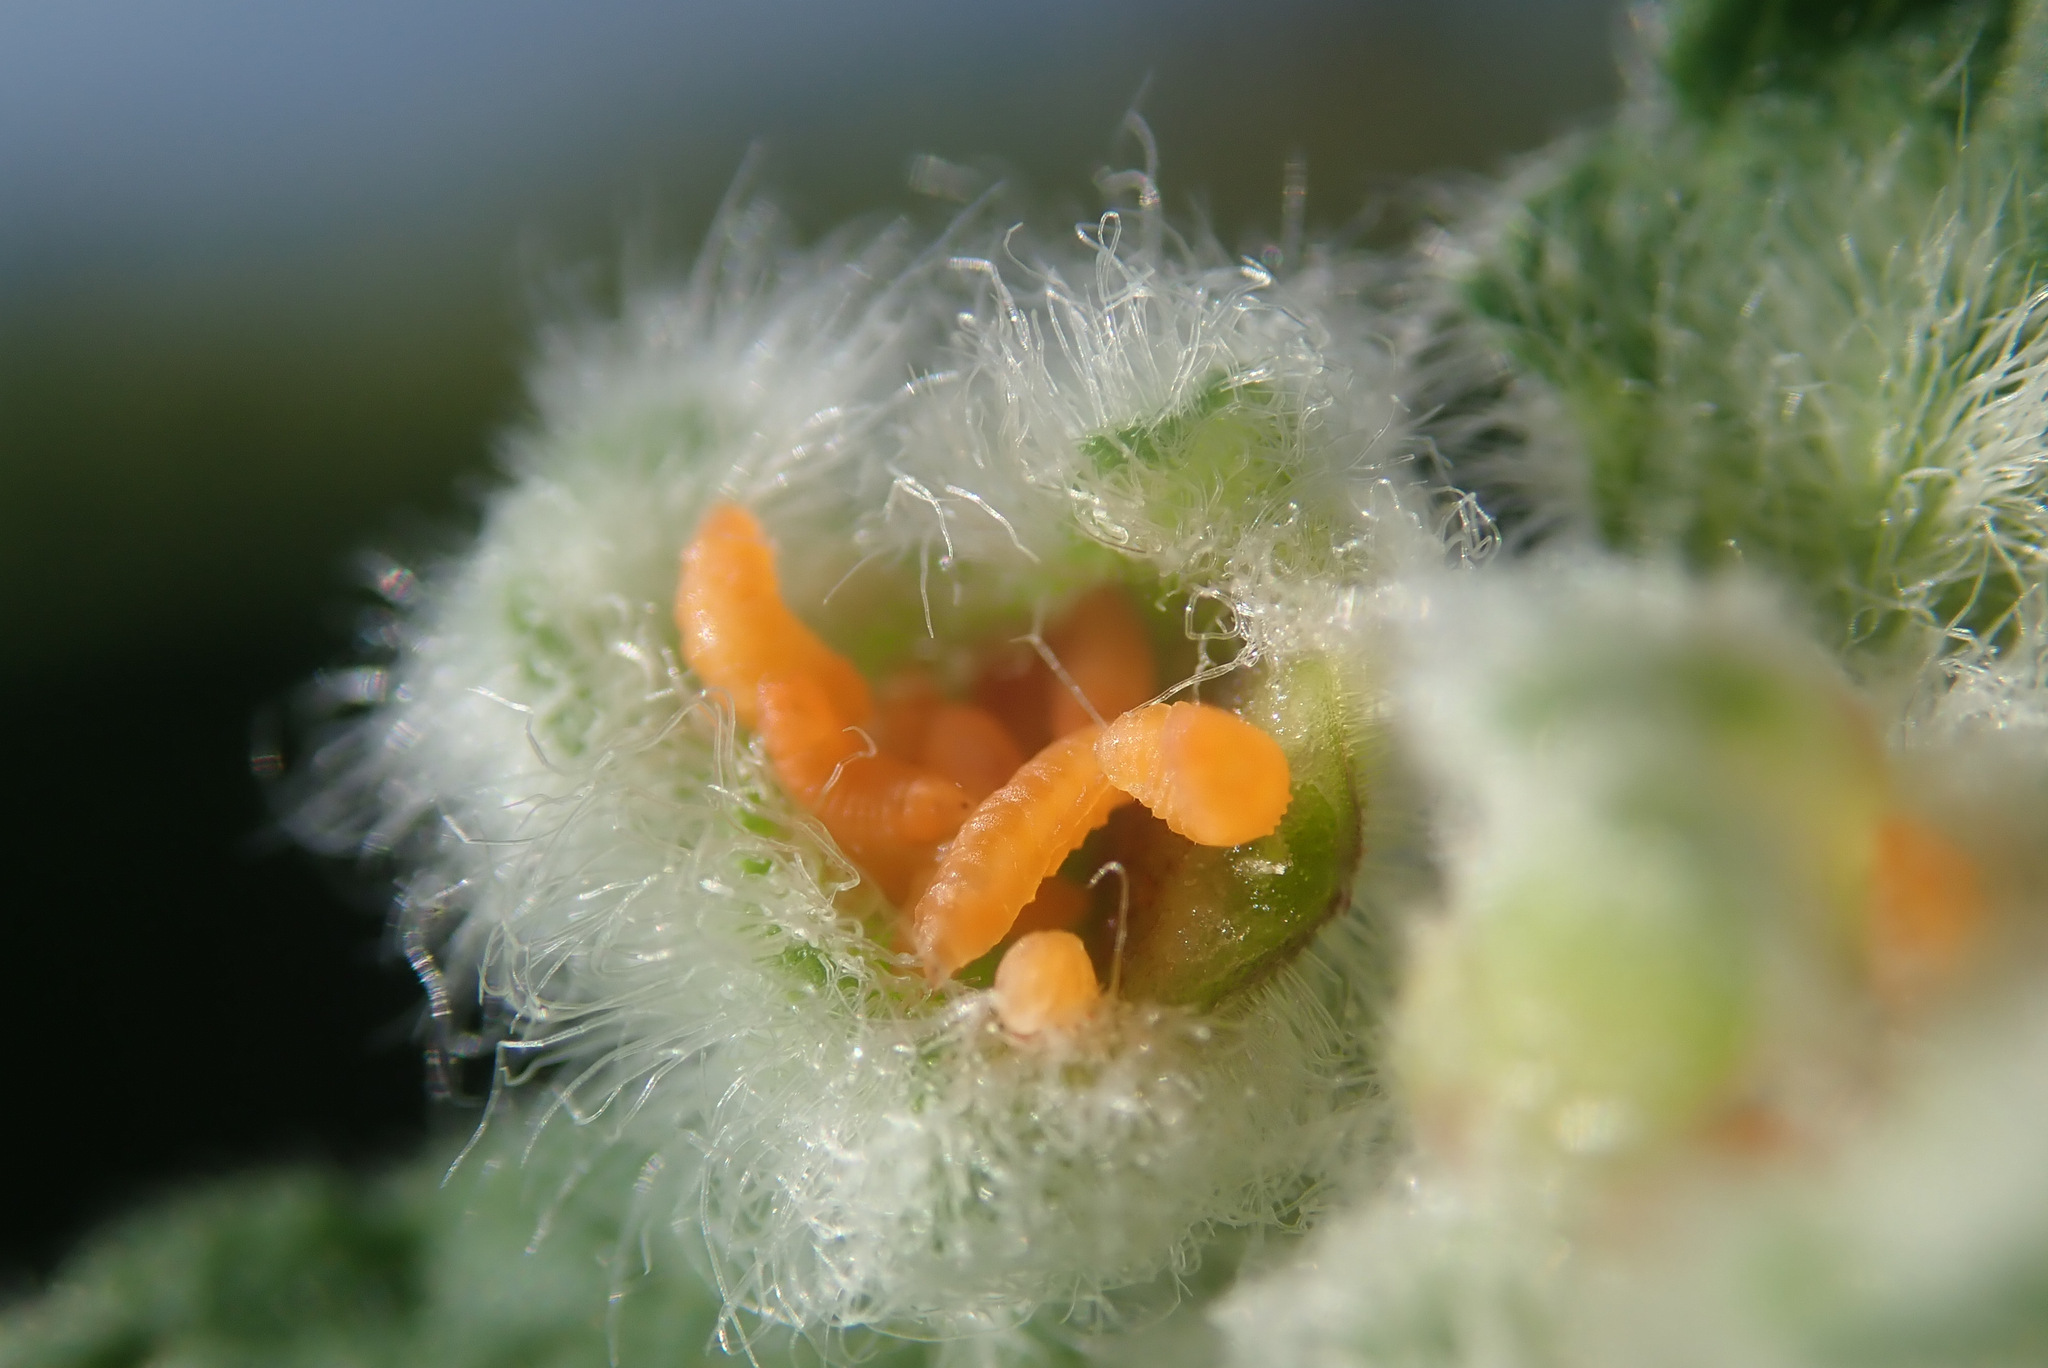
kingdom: Animalia
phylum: Arthropoda
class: Insecta
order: Diptera
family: Cecidomyiidae
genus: Jaapiella
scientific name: Jaapiella veronicae
